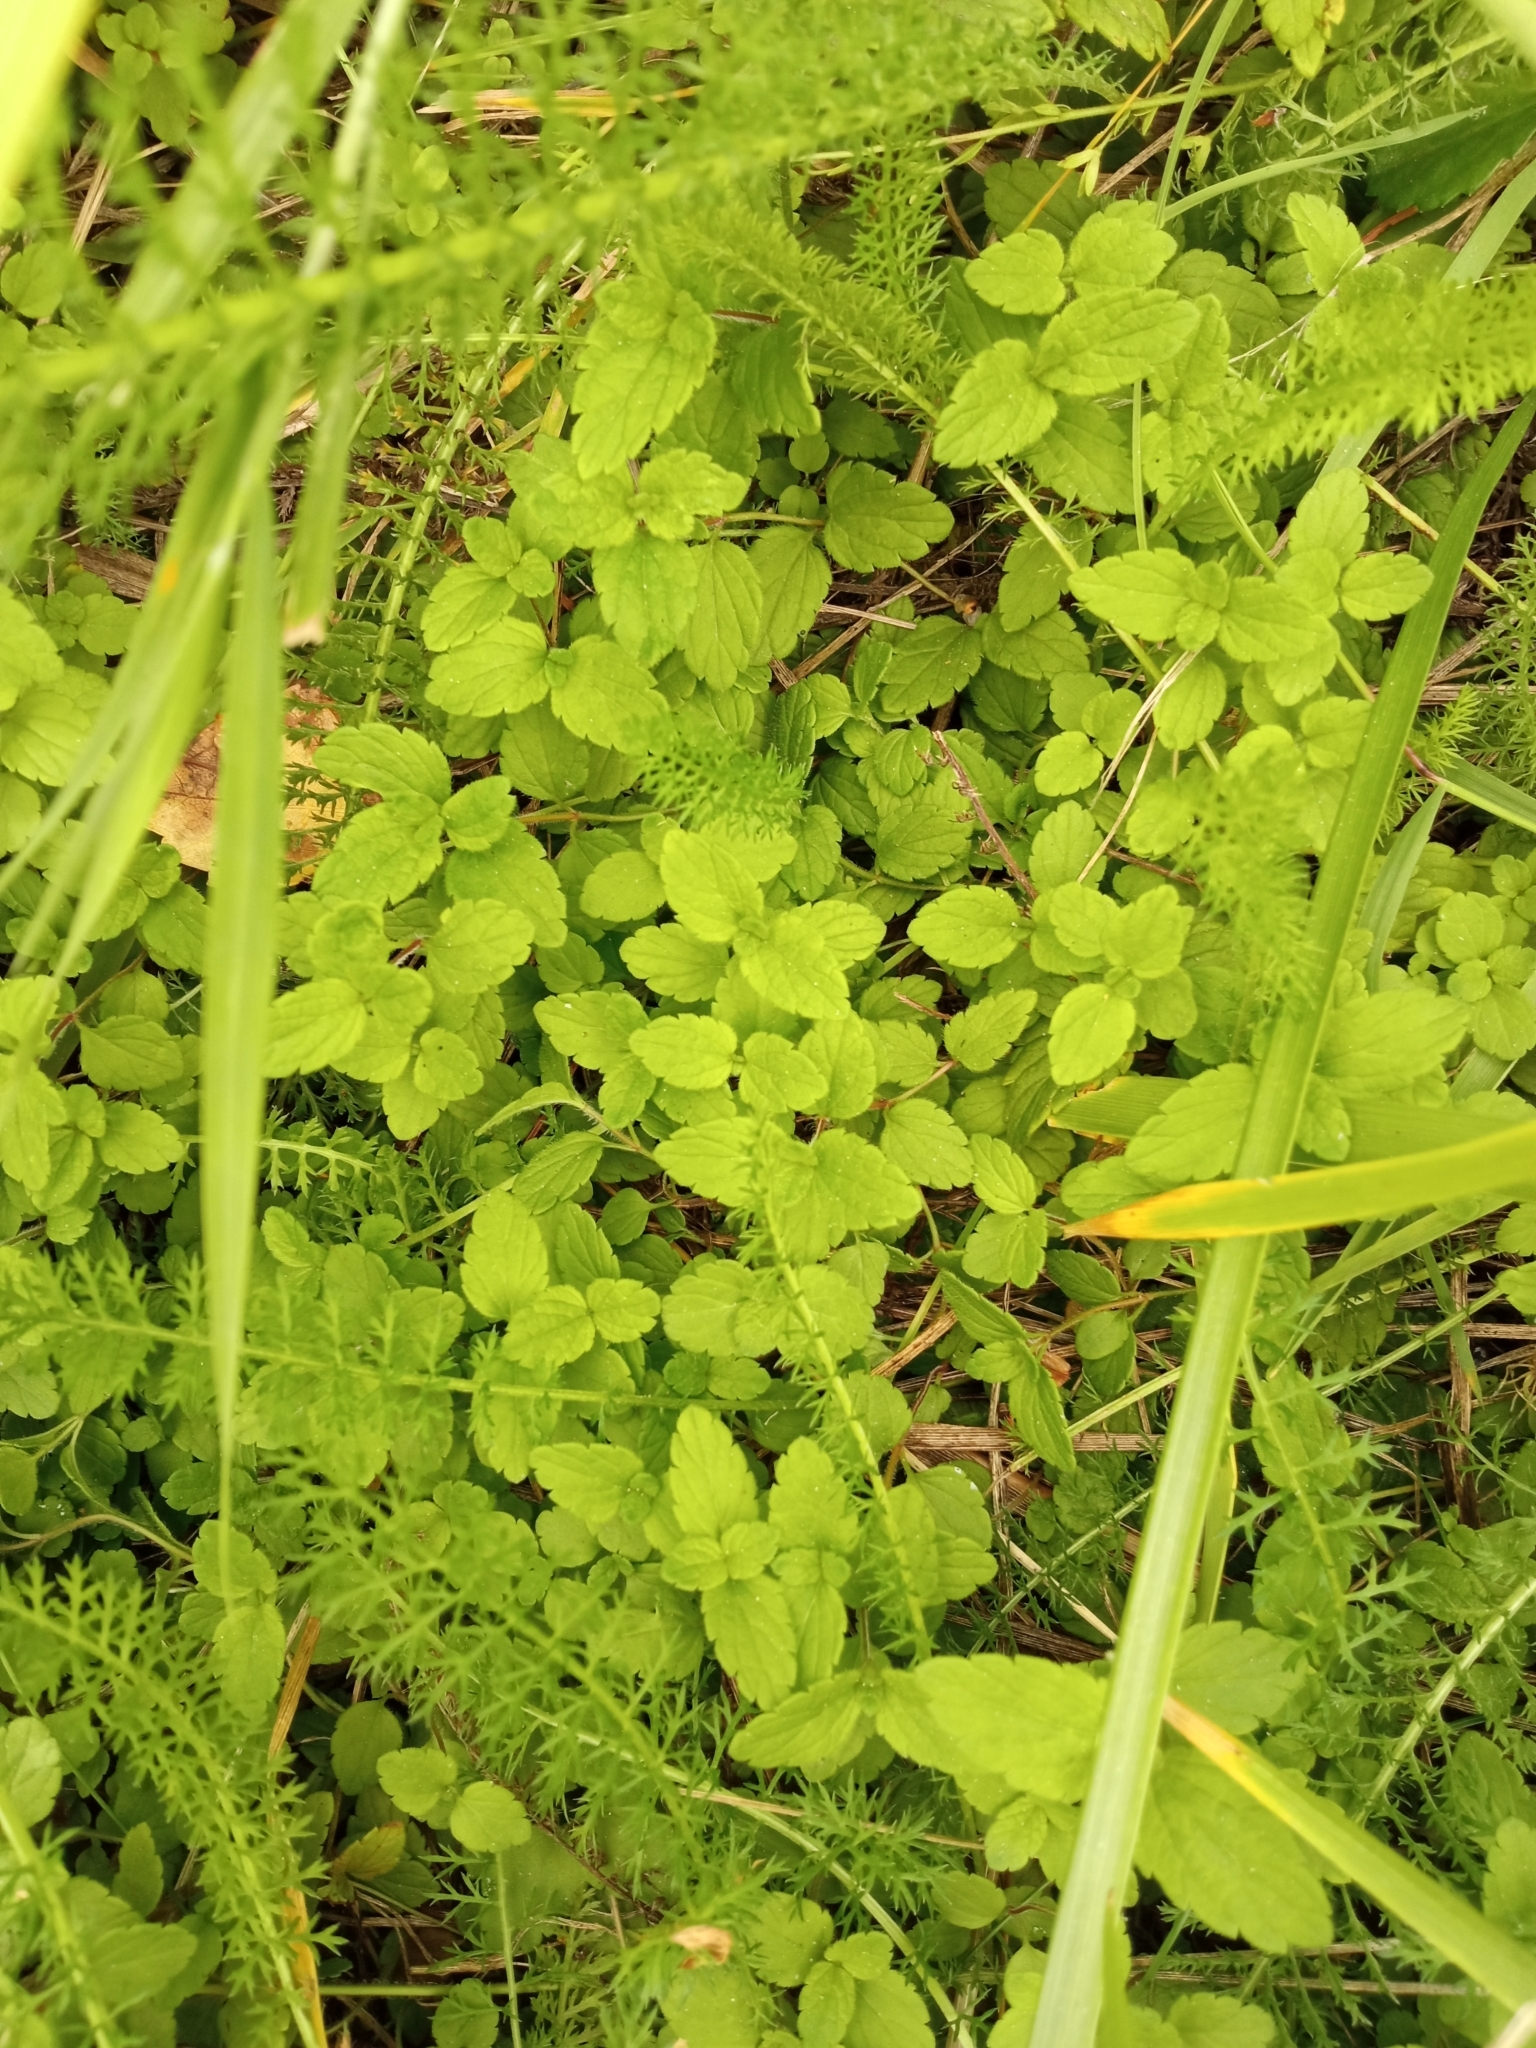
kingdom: Plantae
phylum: Tracheophyta
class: Magnoliopsida
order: Lamiales
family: Plantaginaceae
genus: Veronica
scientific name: Veronica chamaedrys
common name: Germander speedwell
